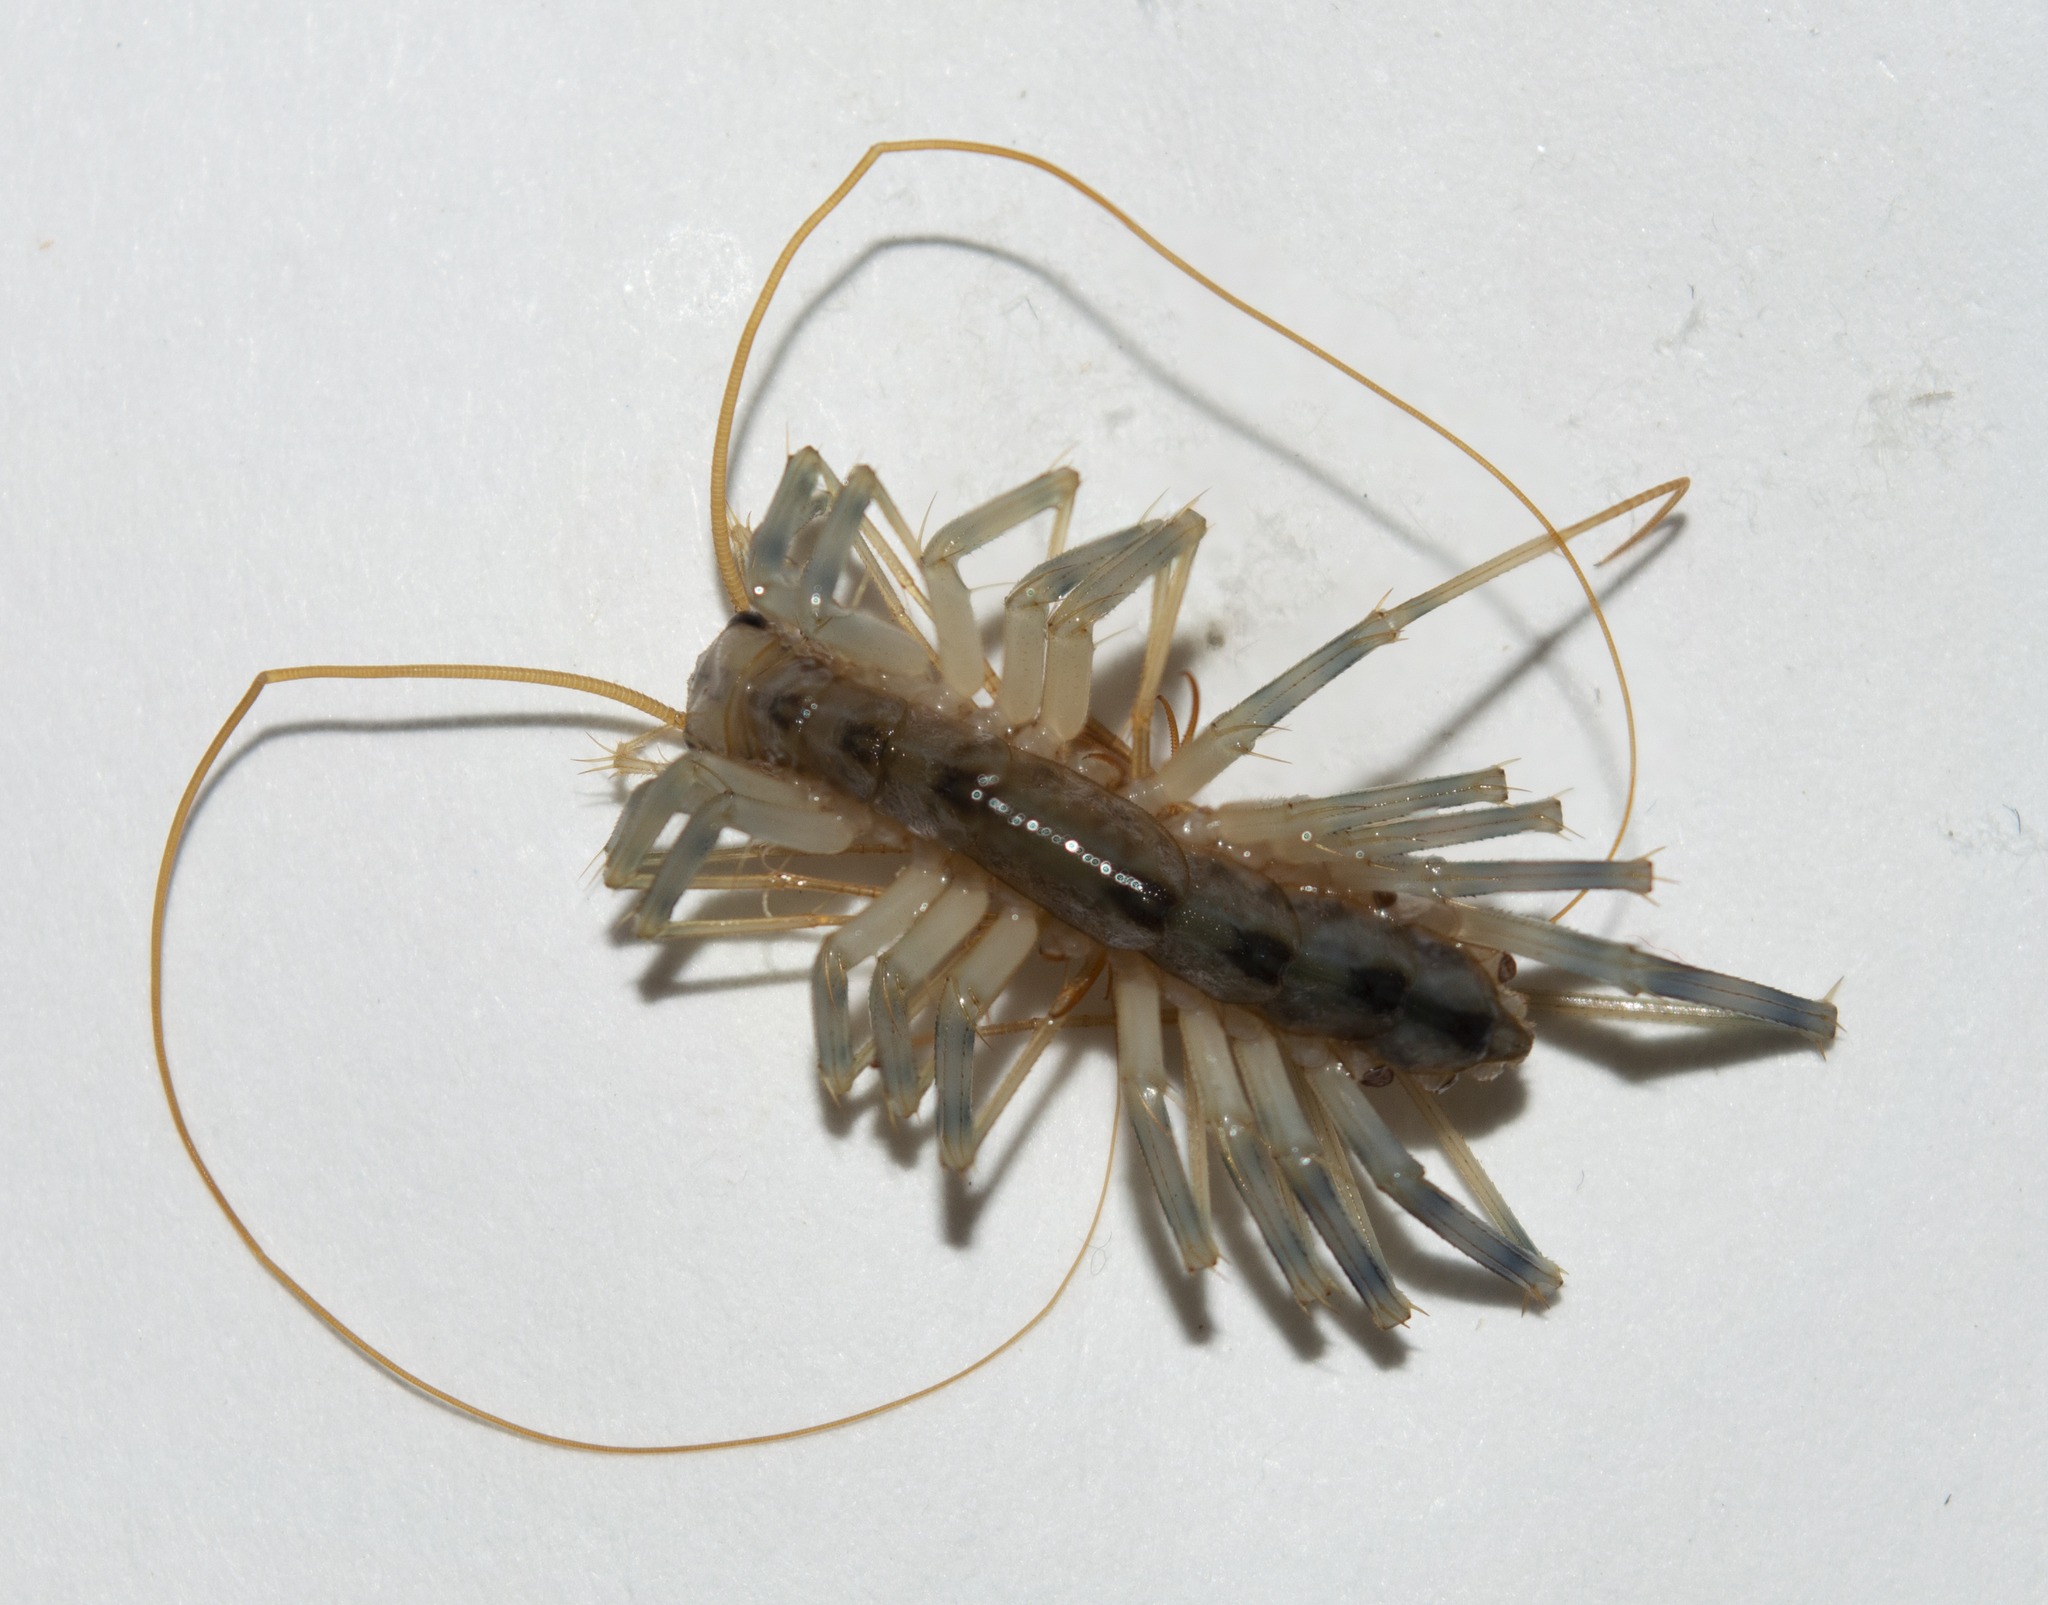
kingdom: Animalia
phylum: Arthropoda
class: Chilopoda
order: Scutigeromorpha
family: Scutigeridae
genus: Scutigera
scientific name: Scutigera coleoptrata
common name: House centipede
